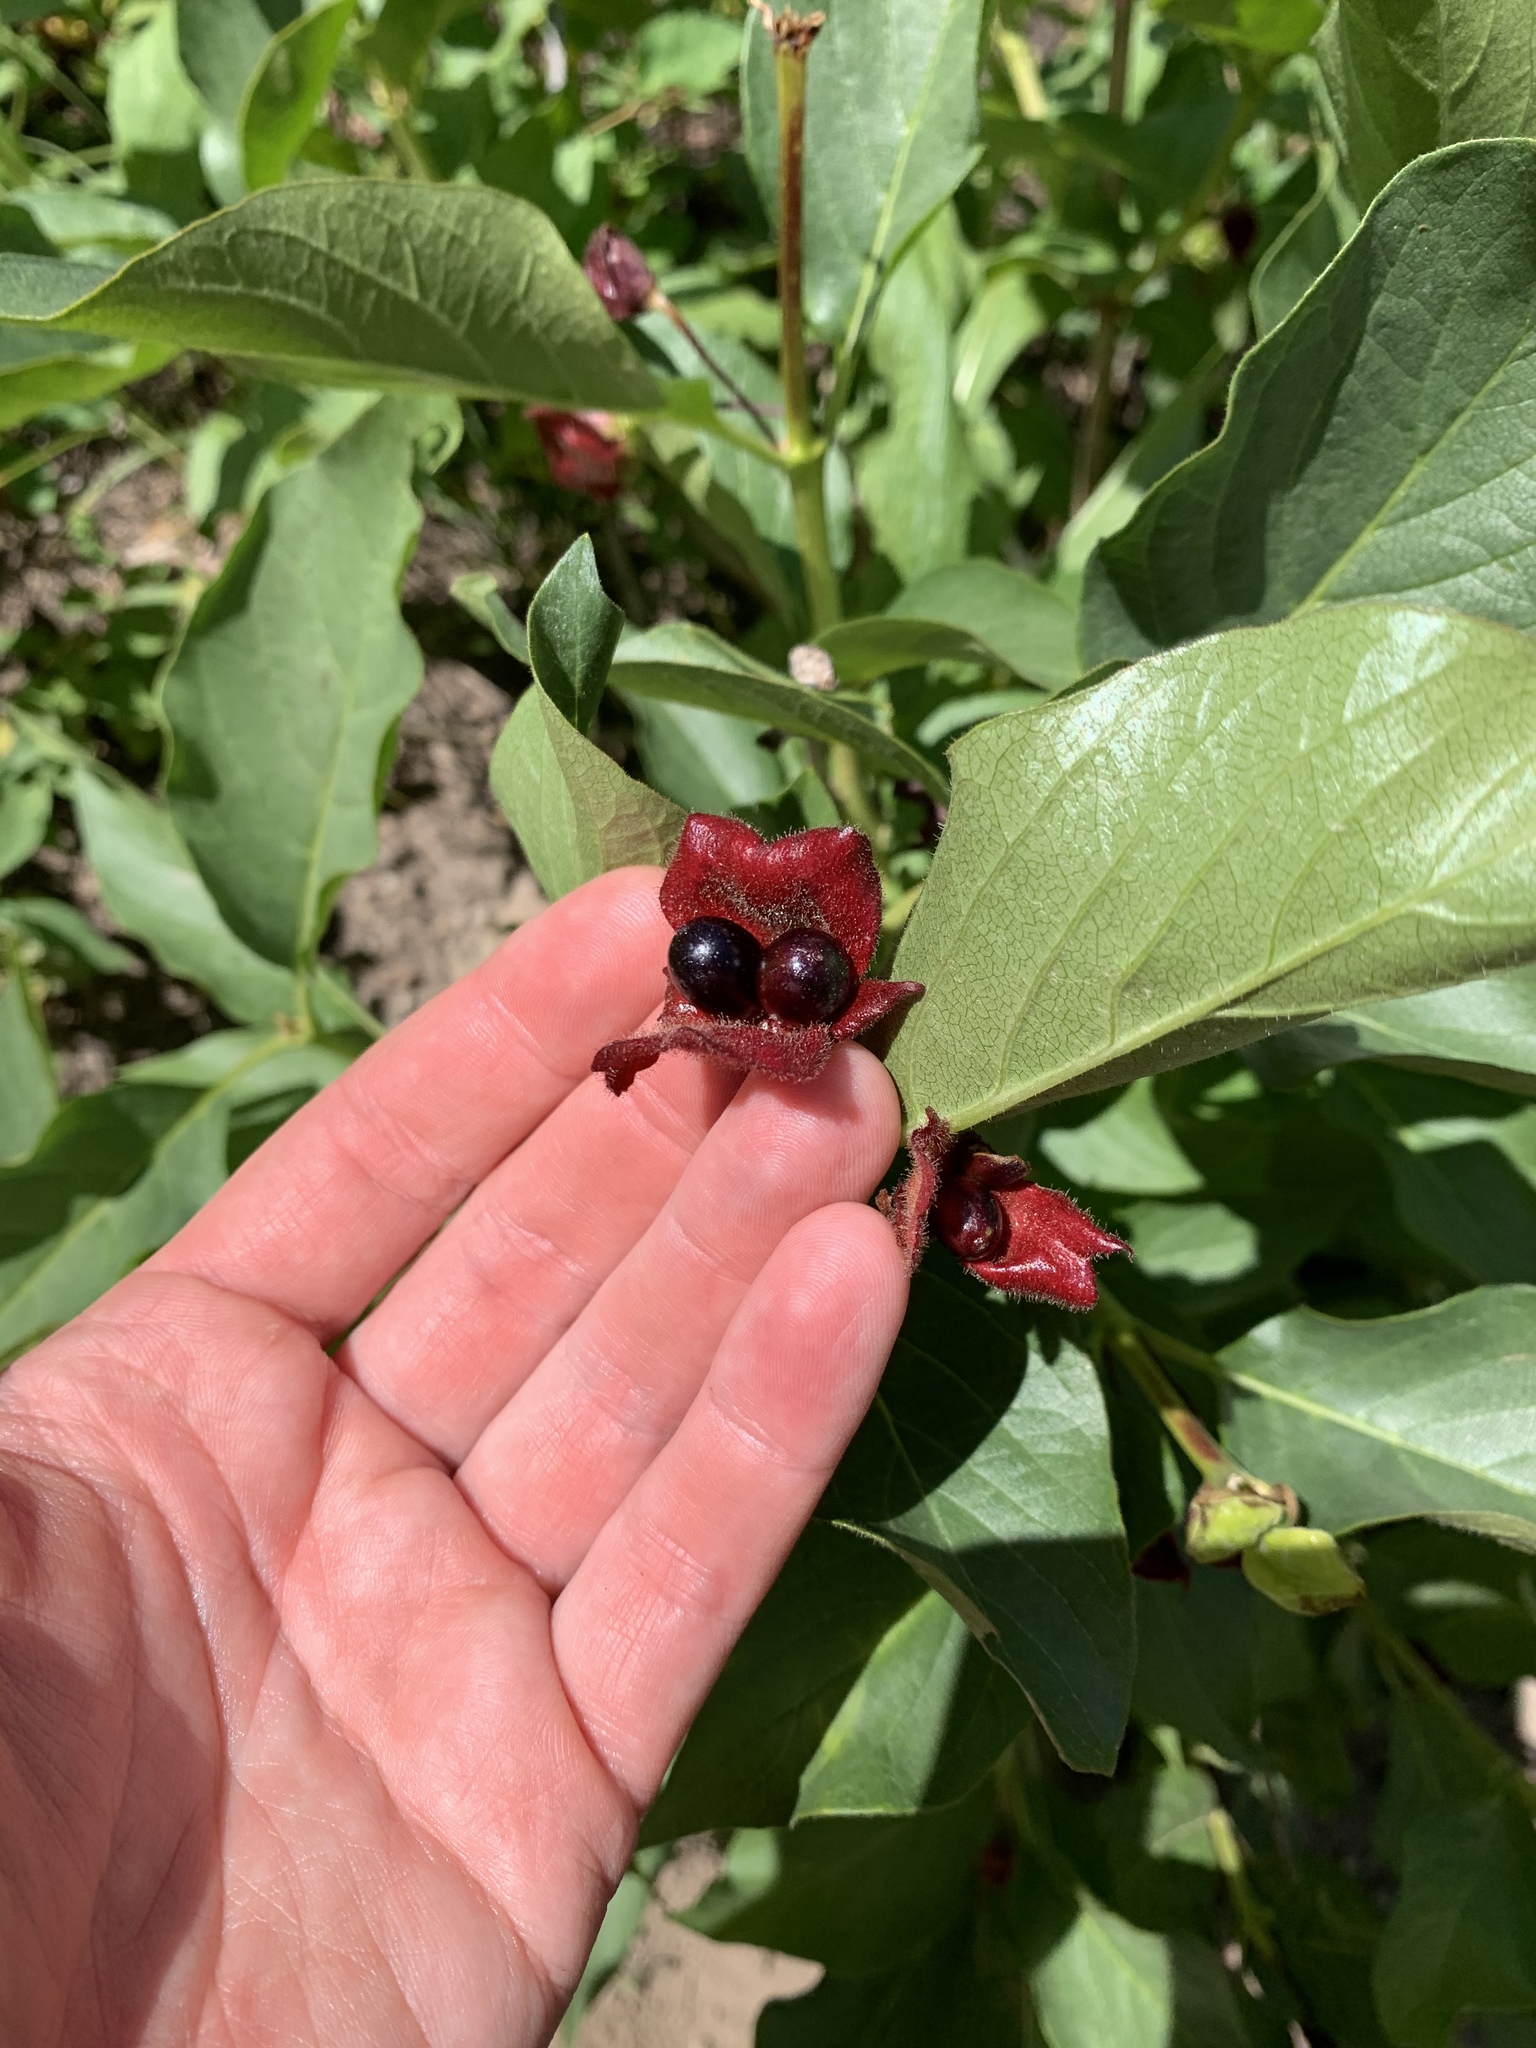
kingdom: Plantae
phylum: Tracheophyta
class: Magnoliopsida
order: Dipsacales
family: Caprifoliaceae
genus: Lonicera
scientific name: Lonicera involucrata
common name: Californian honeysuckle
